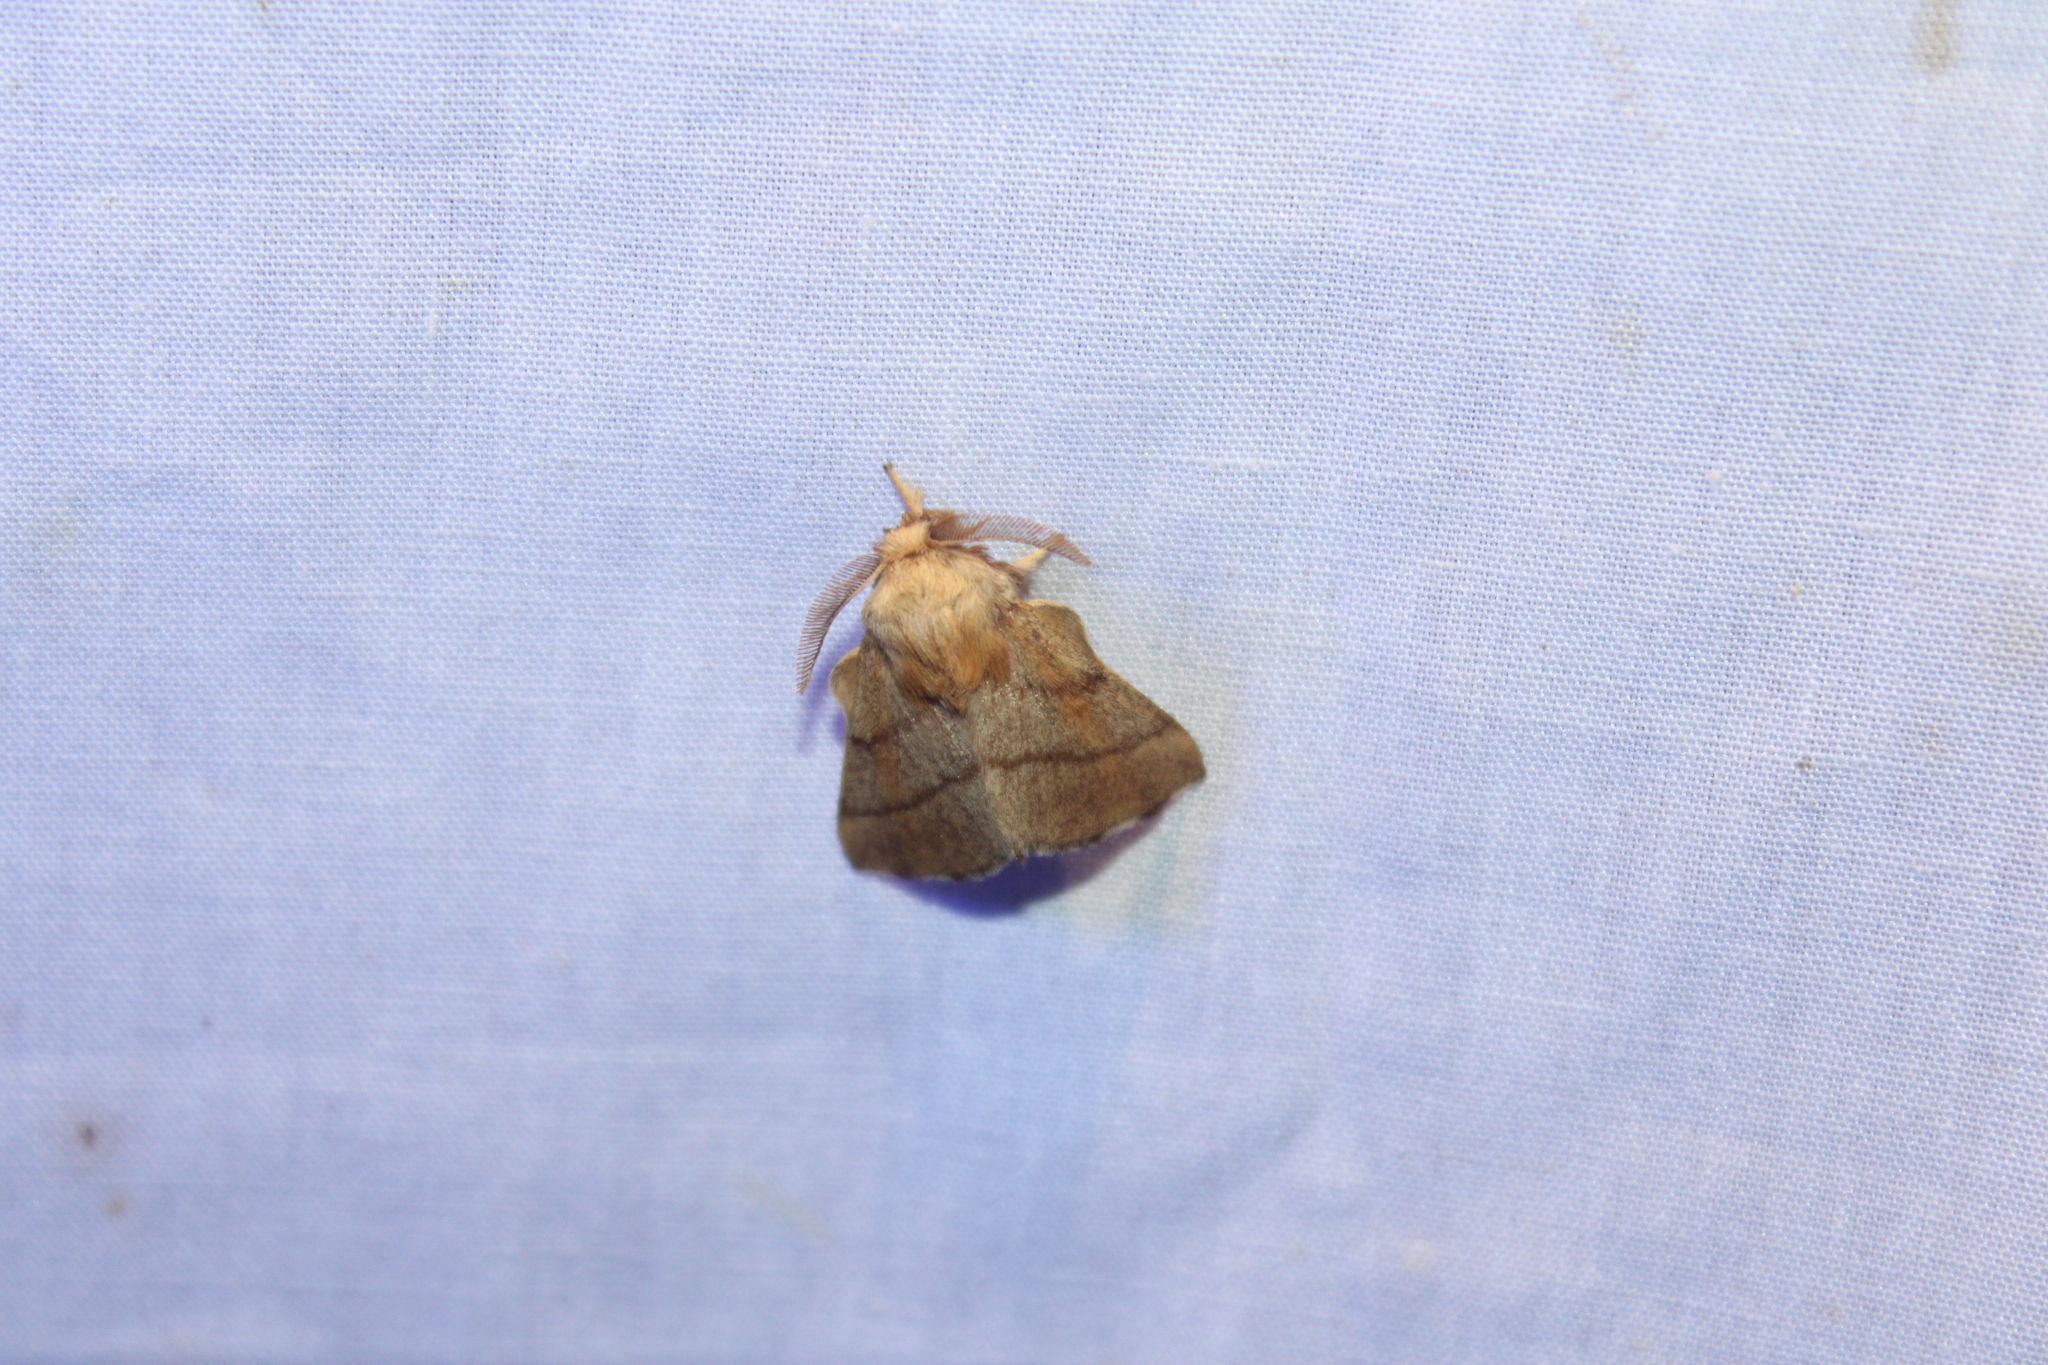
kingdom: Animalia
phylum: Arthropoda
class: Insecta
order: Lepidoptera
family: Lasiocampidae
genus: Malacosoma
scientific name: Malacosoma disstria
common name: Forest tent caterpillar
